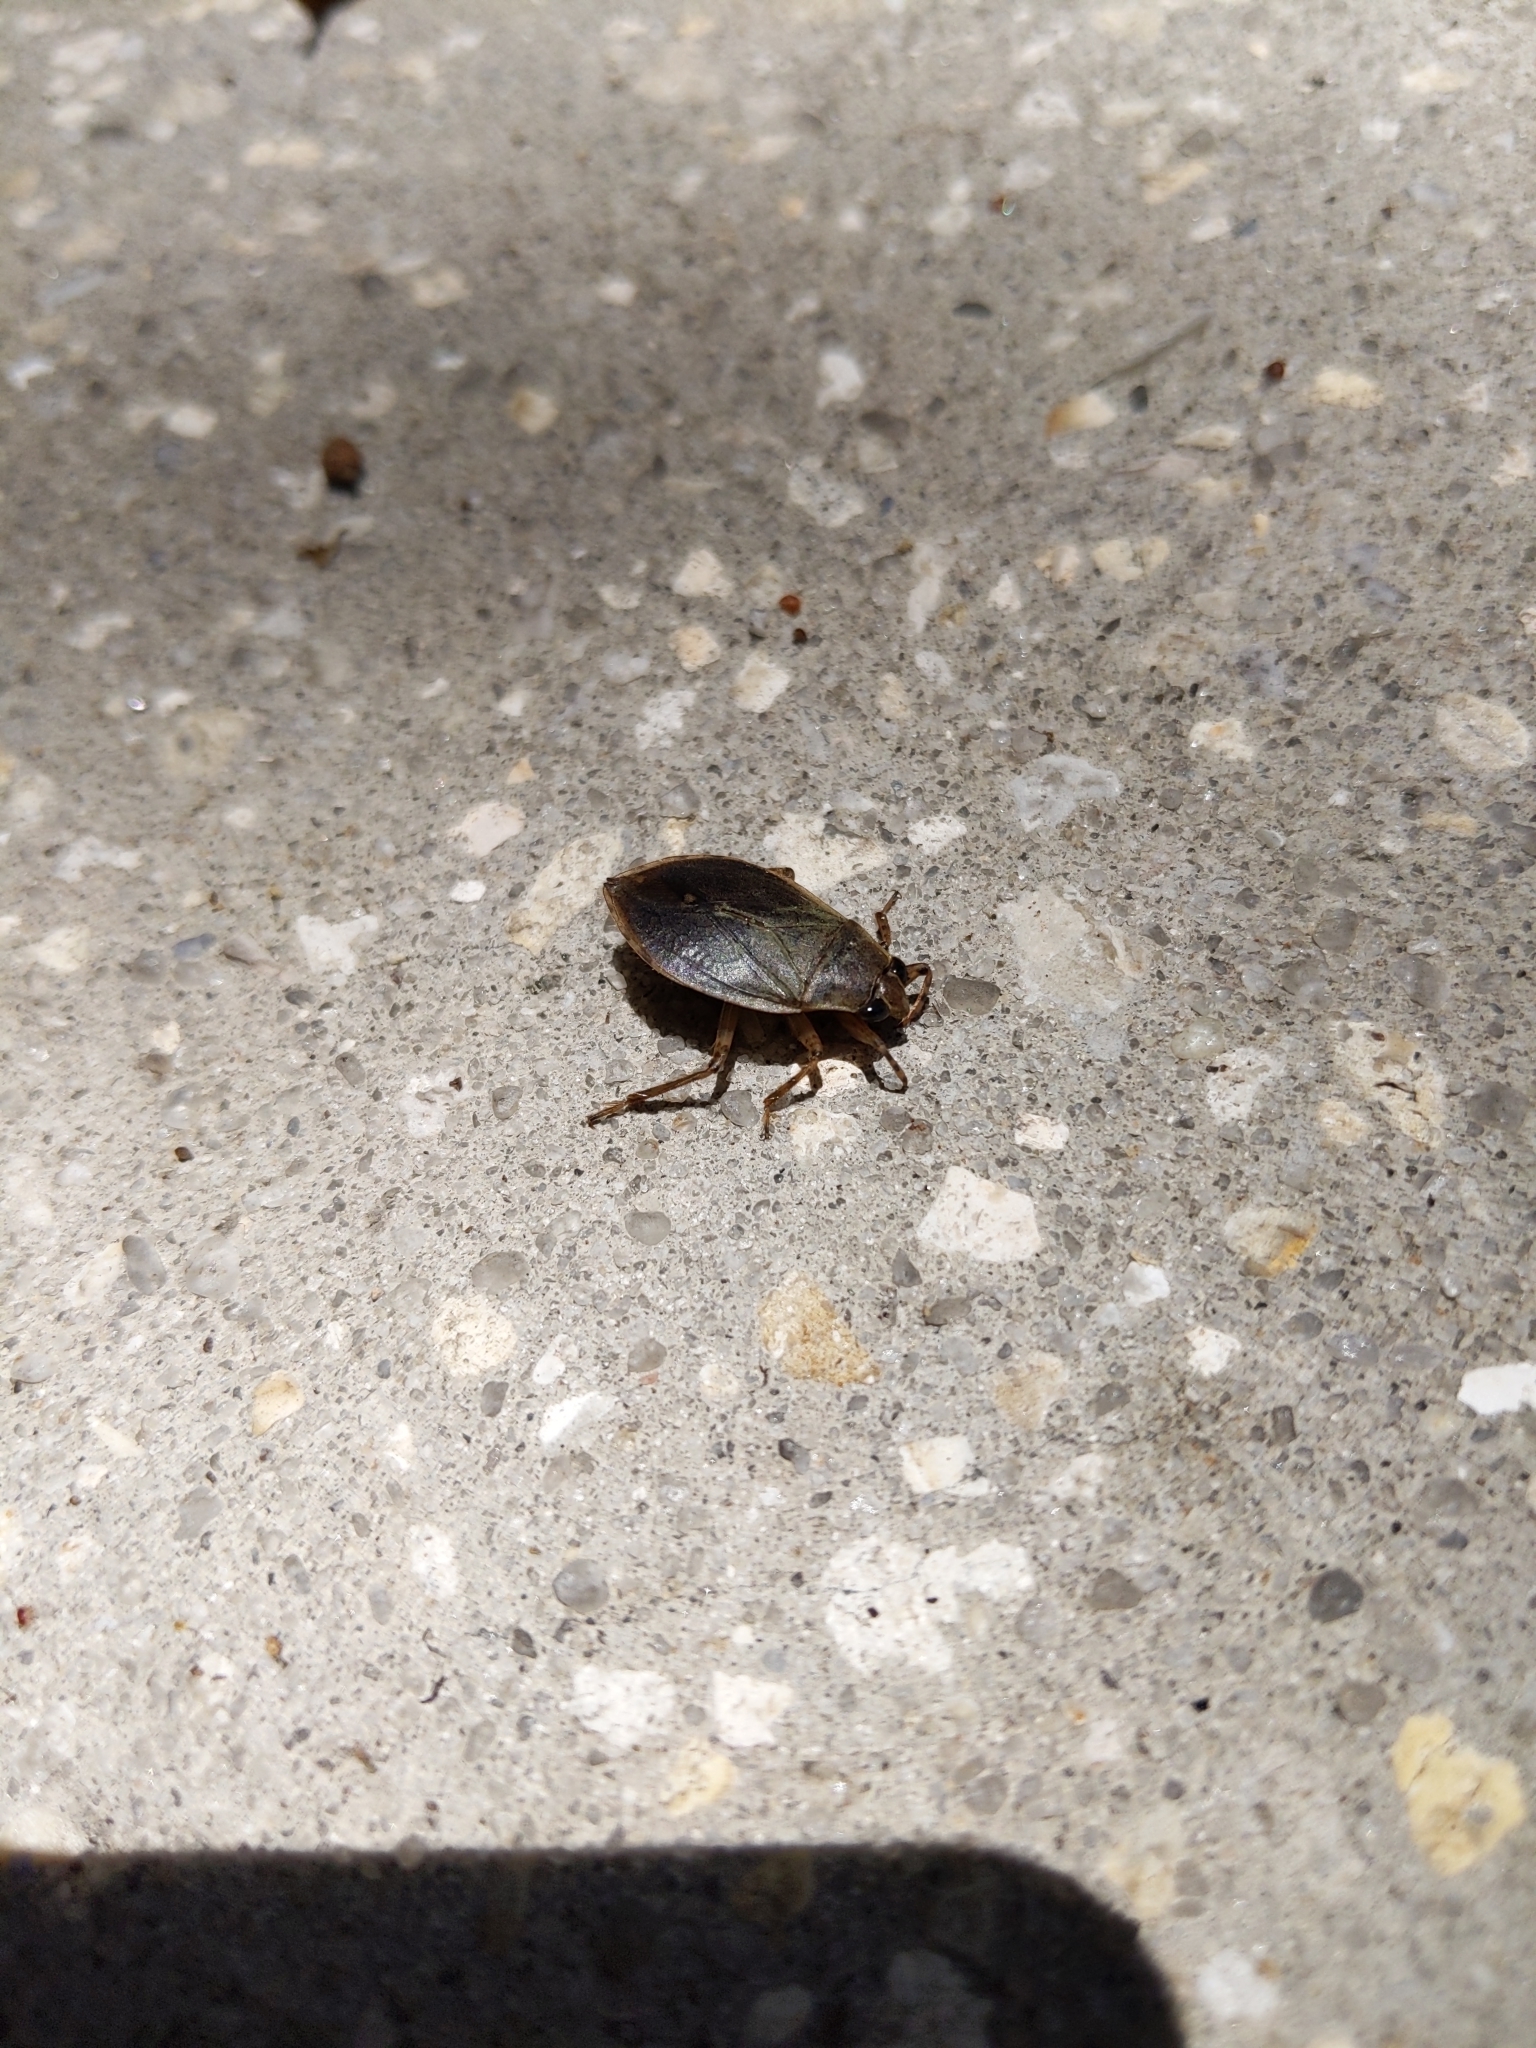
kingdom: Animalia
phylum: Arthropoda
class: Insecta
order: Hemiptera
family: Belostomatidae
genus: Belostoma
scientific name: Belostoma
